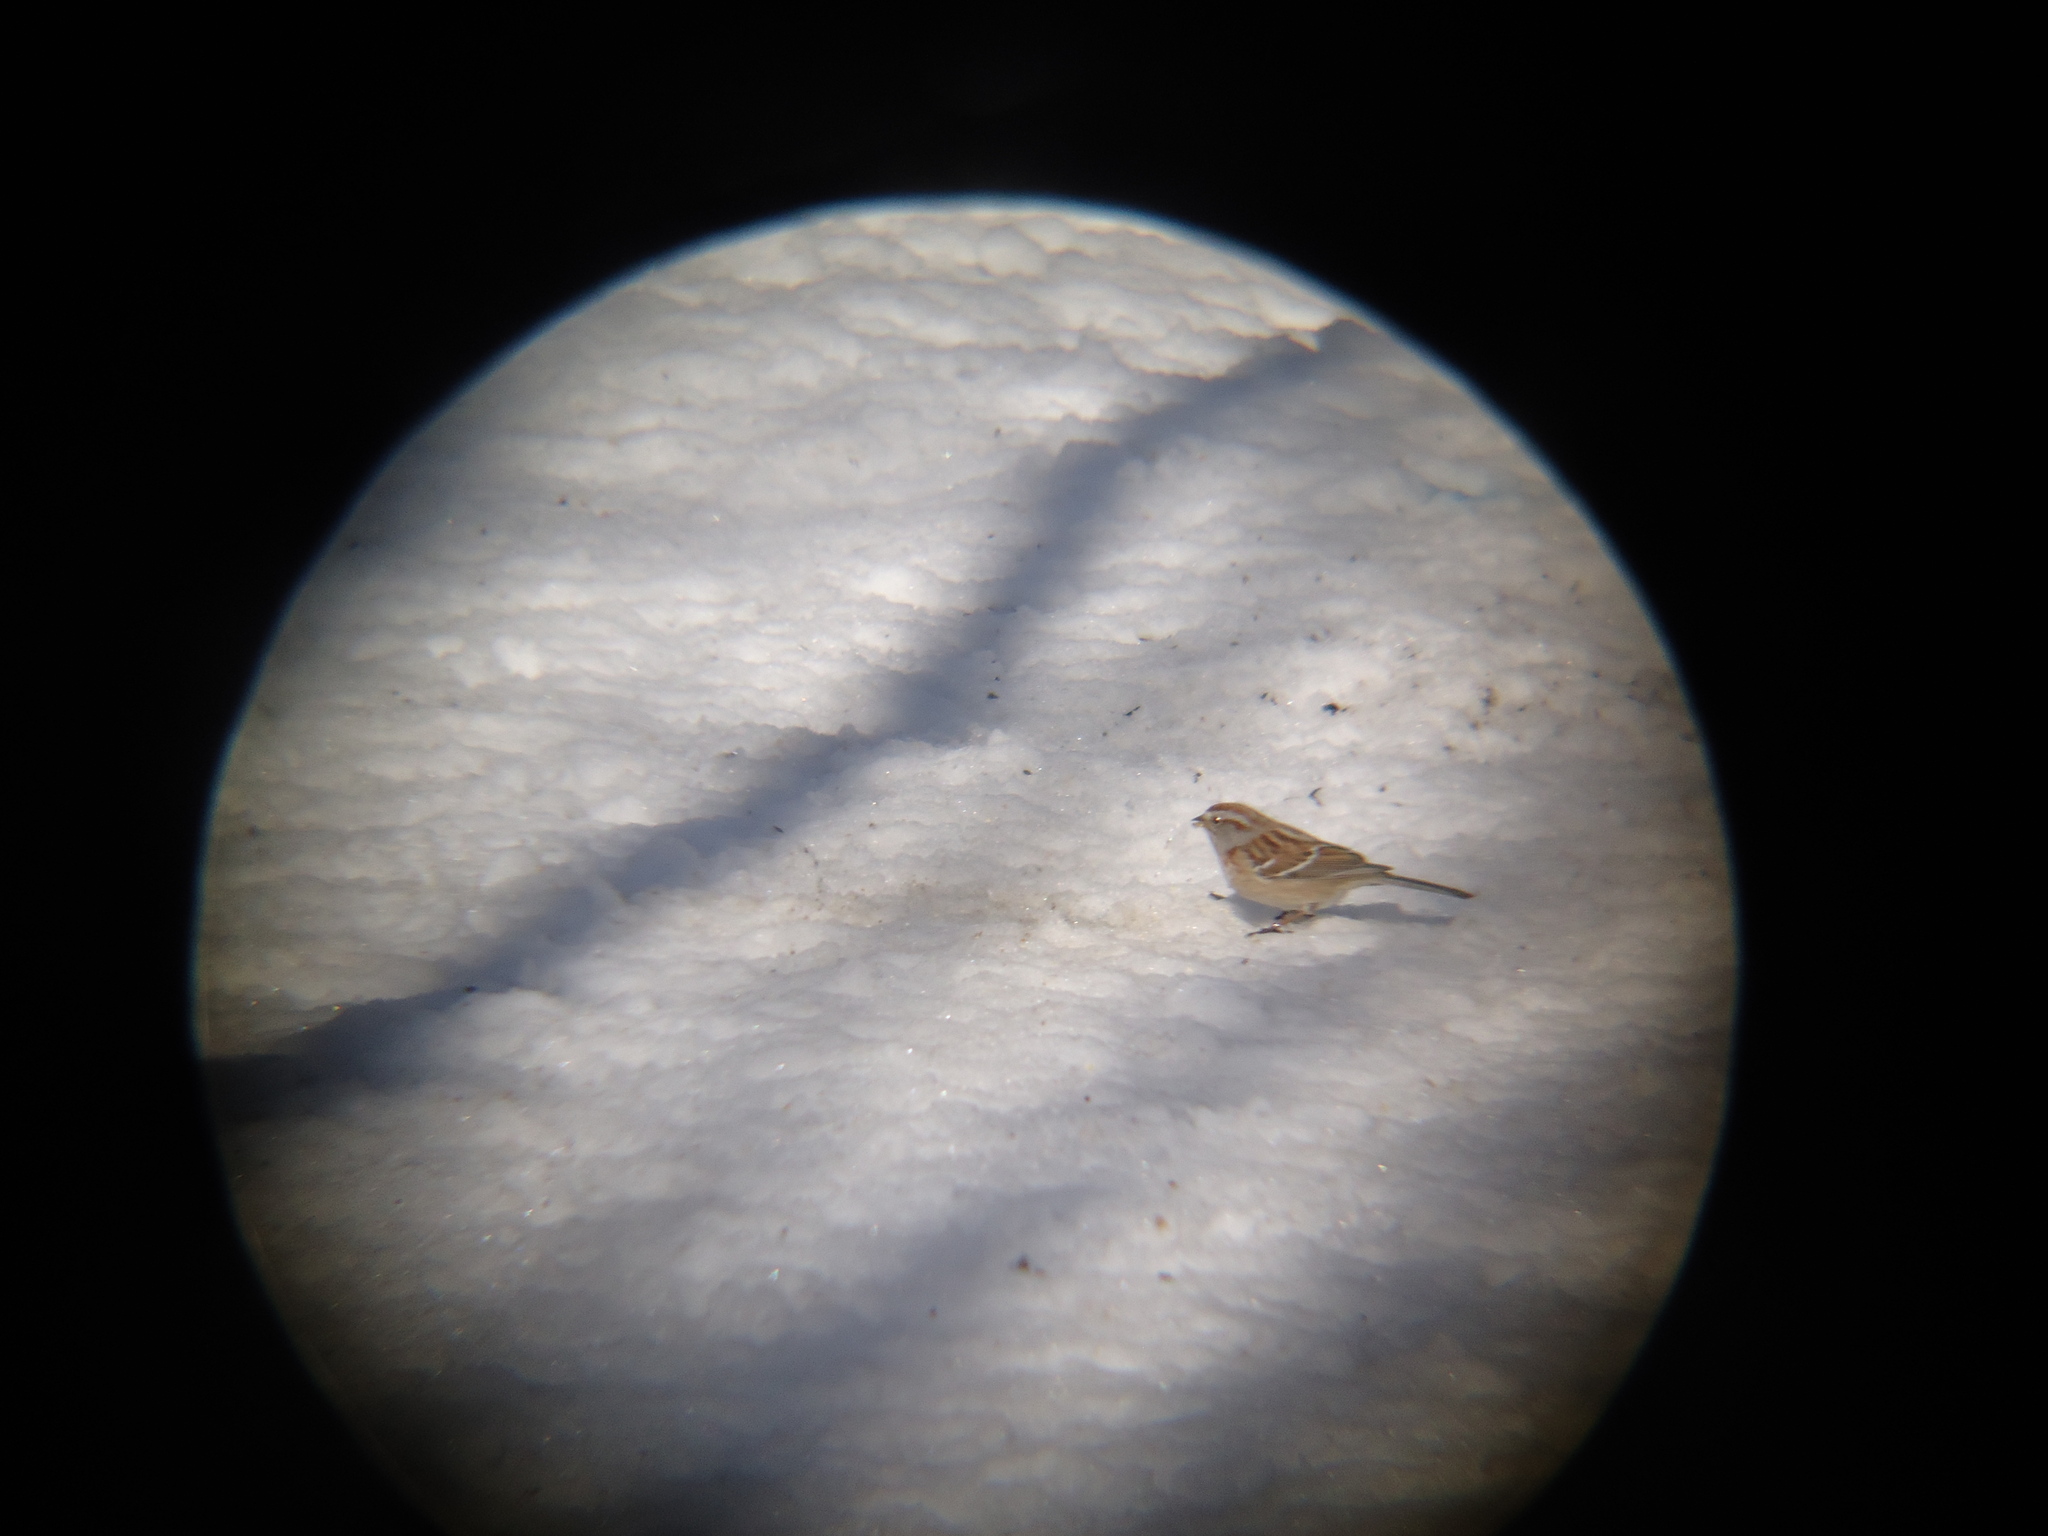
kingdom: Animalia
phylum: Chordata
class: Aves
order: Passeriformes
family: Passerellidae
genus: Spizelloides
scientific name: Spizelloides arborea
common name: American tree sparrow
